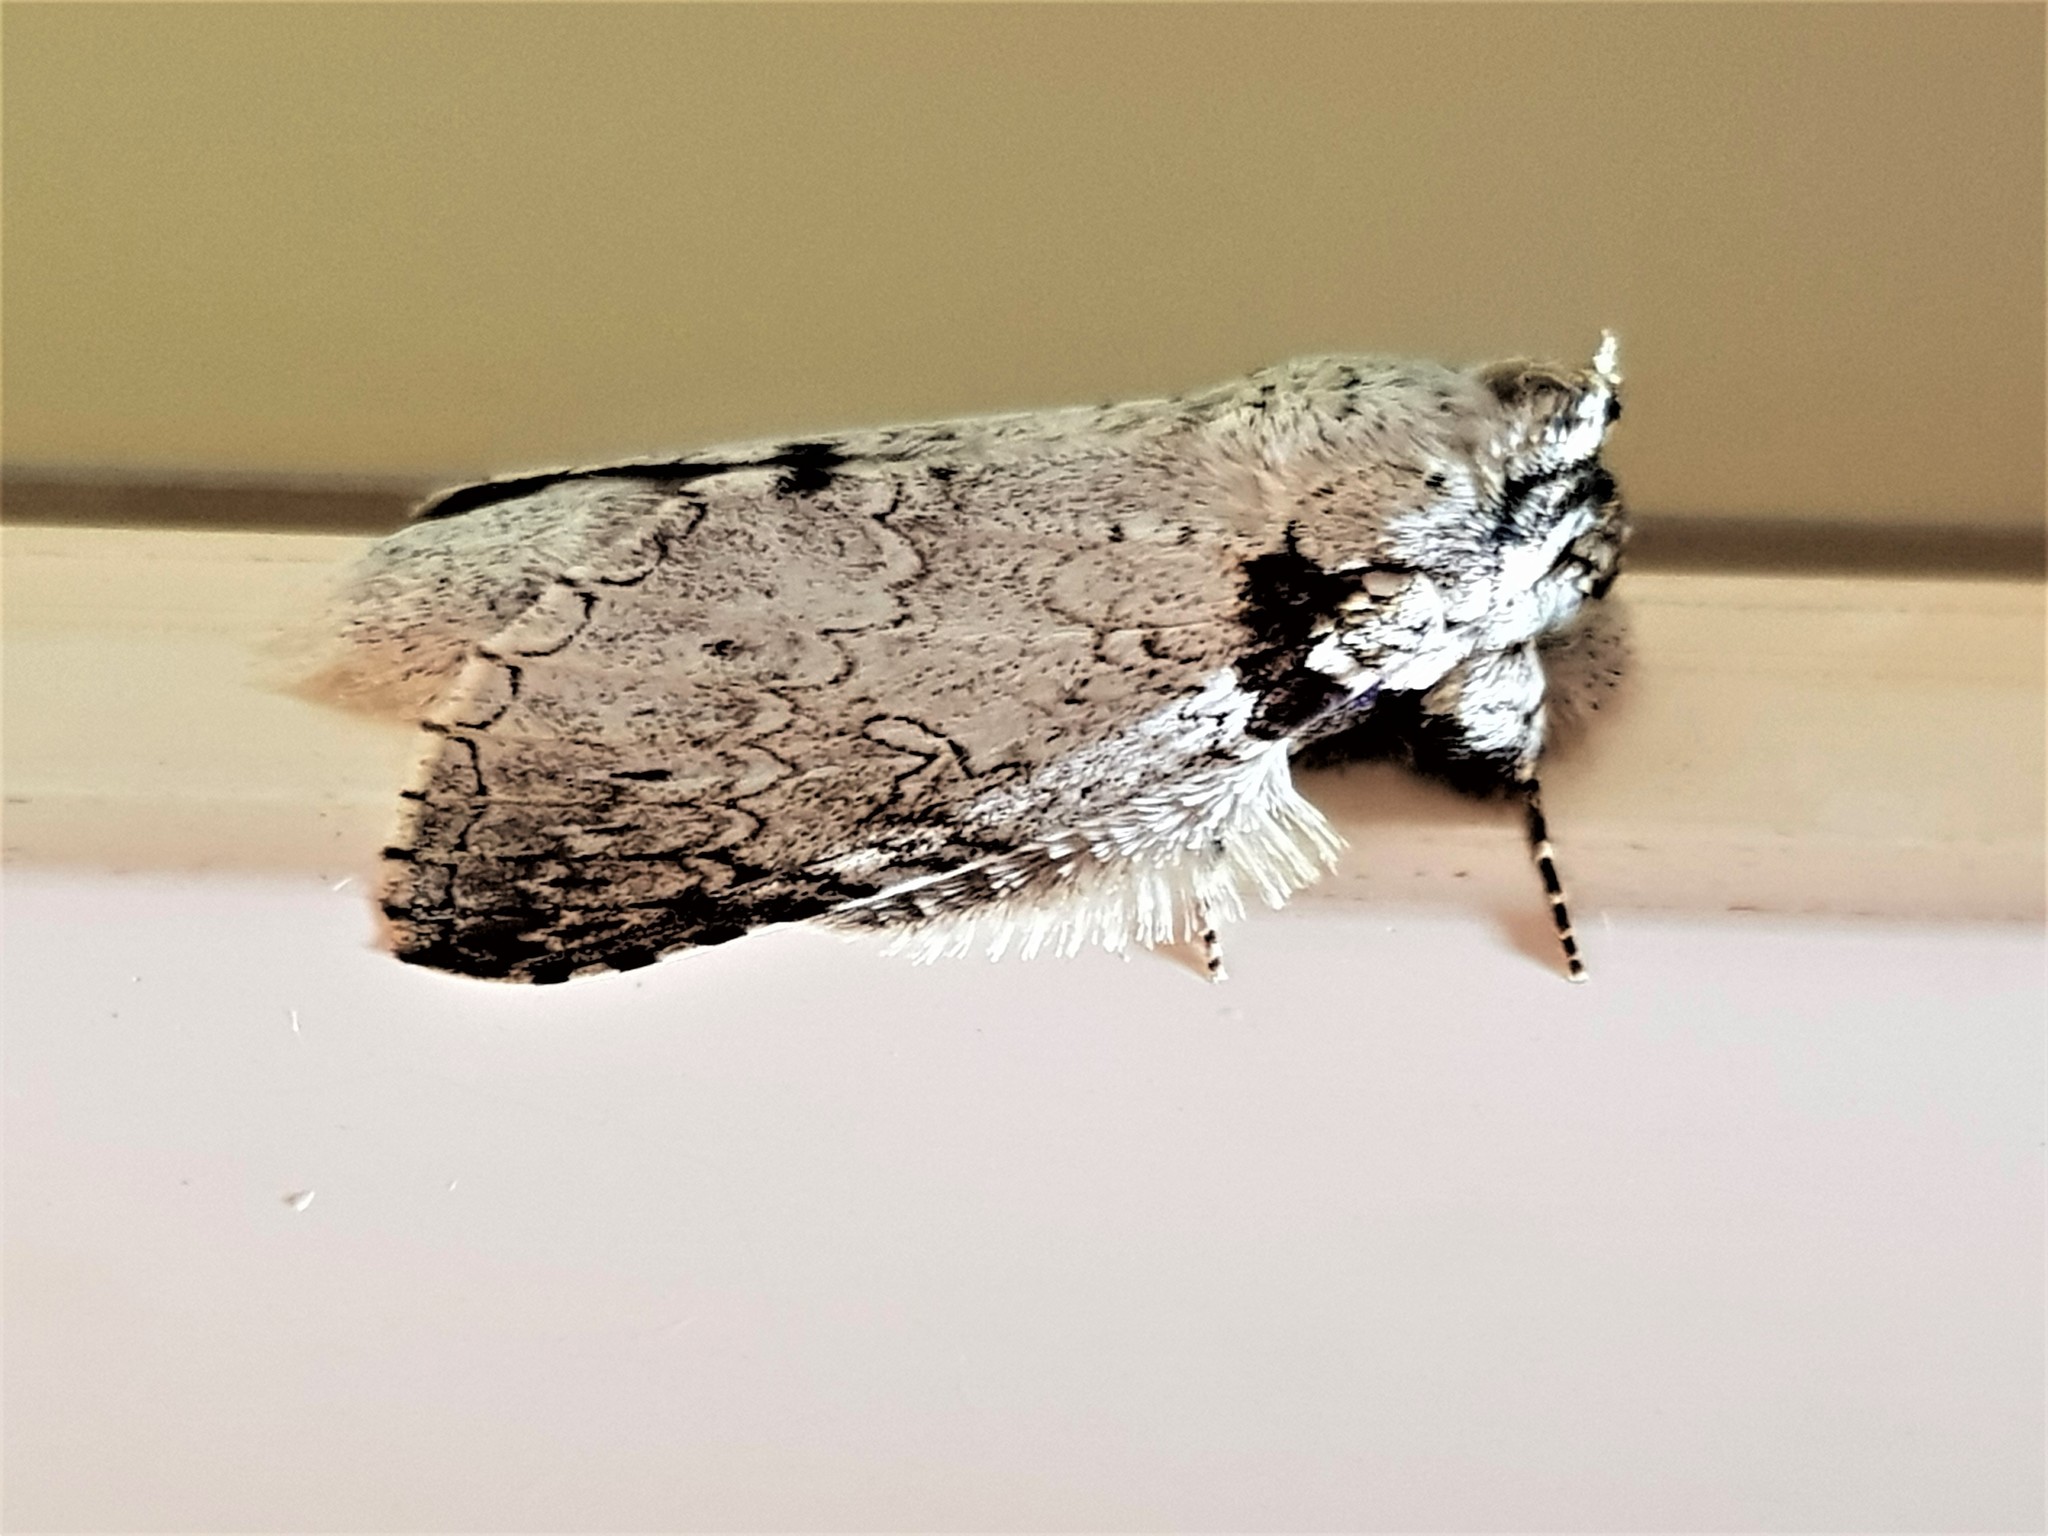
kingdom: Animalia
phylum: Arthropoda
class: Insecta
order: Lepidoptera
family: Notodontidae
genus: Rifargia
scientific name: Rifargia distinguenda
